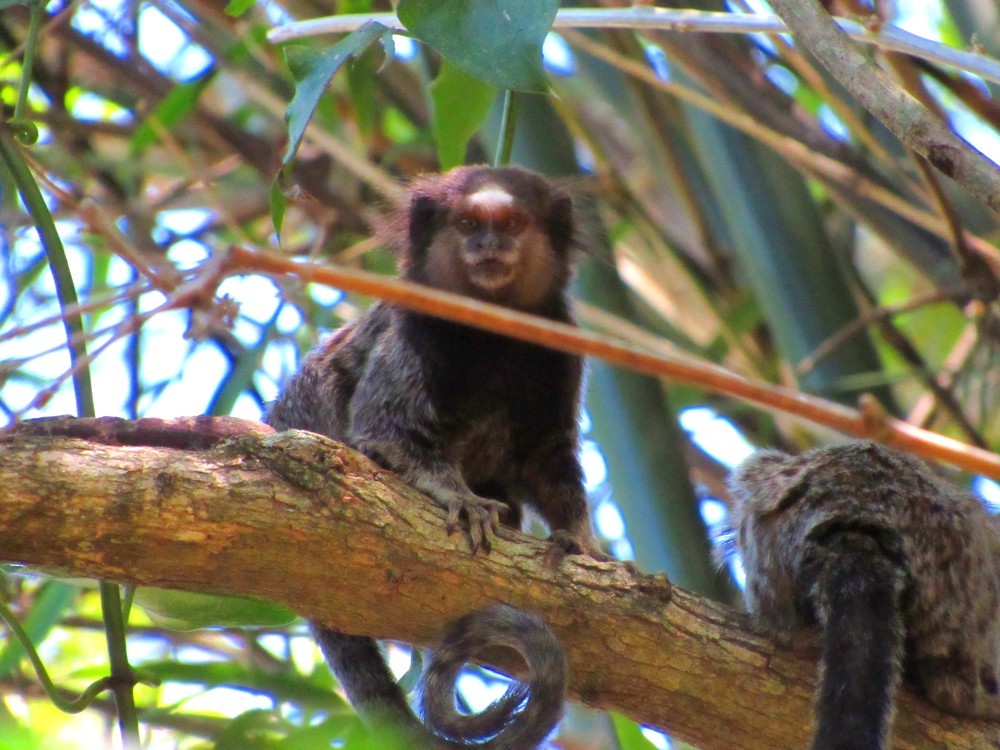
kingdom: Animalia
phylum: Chordata
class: Mammalia
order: Primates
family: Callitrichidae
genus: Callithrix
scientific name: Callithrix penicillata
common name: Black-tufted marmoset
